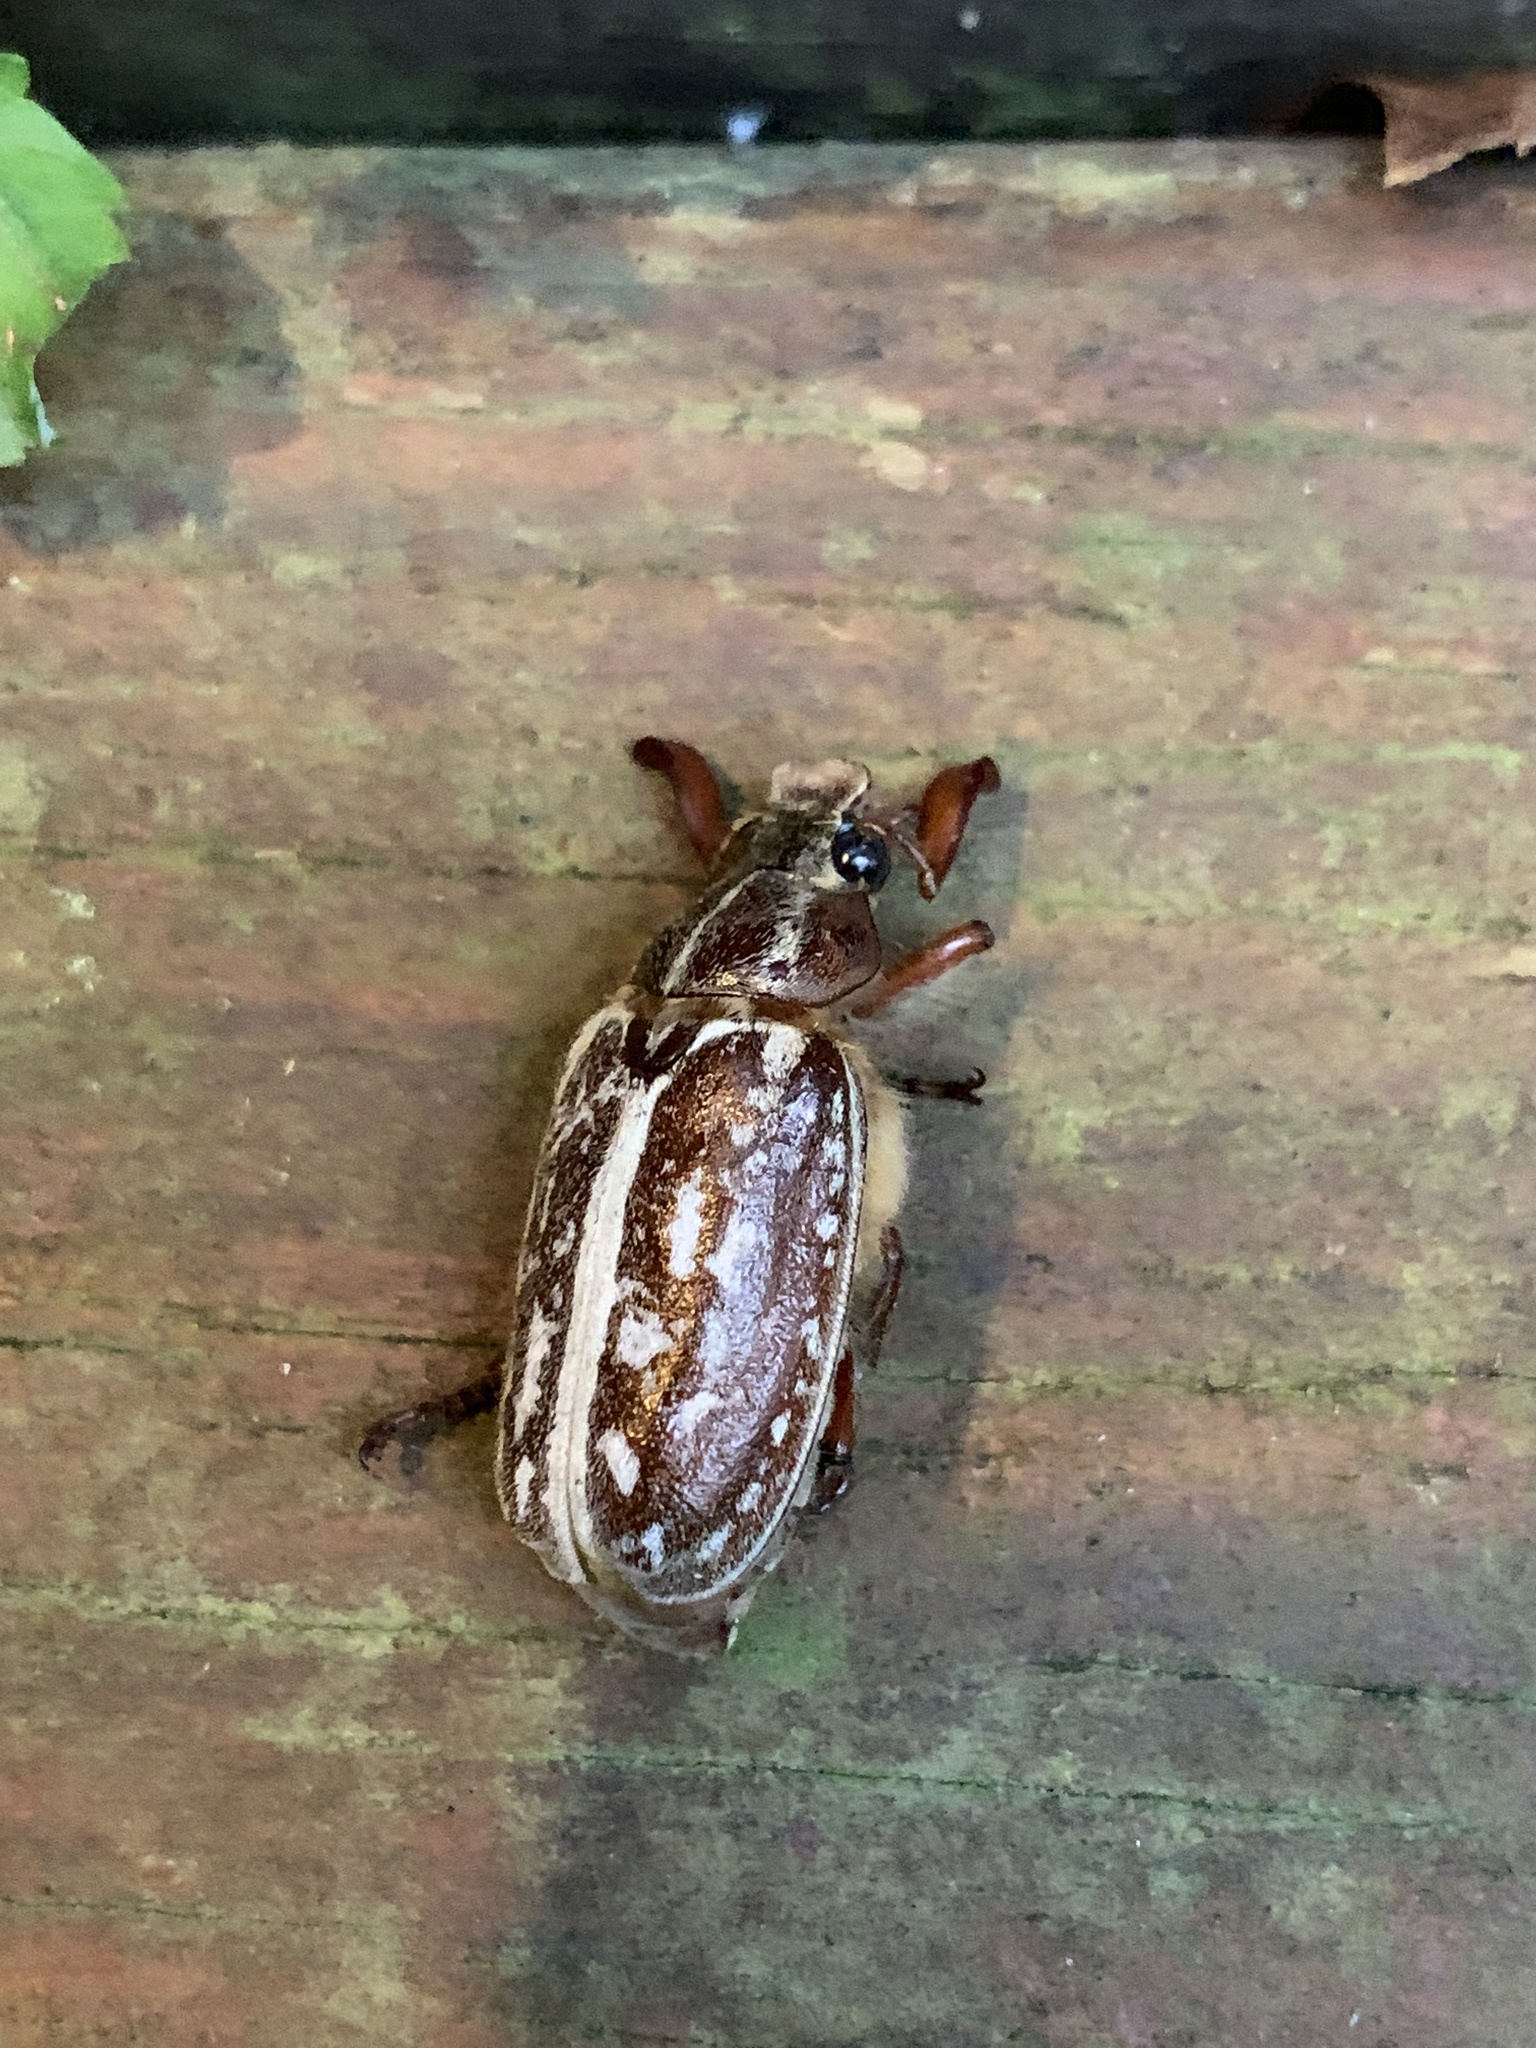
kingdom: Animalia
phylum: Arthropoda
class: Insecta
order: Coleoptera
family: Scarabaeidae
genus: Polyphylla
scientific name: Polyphylla comes
